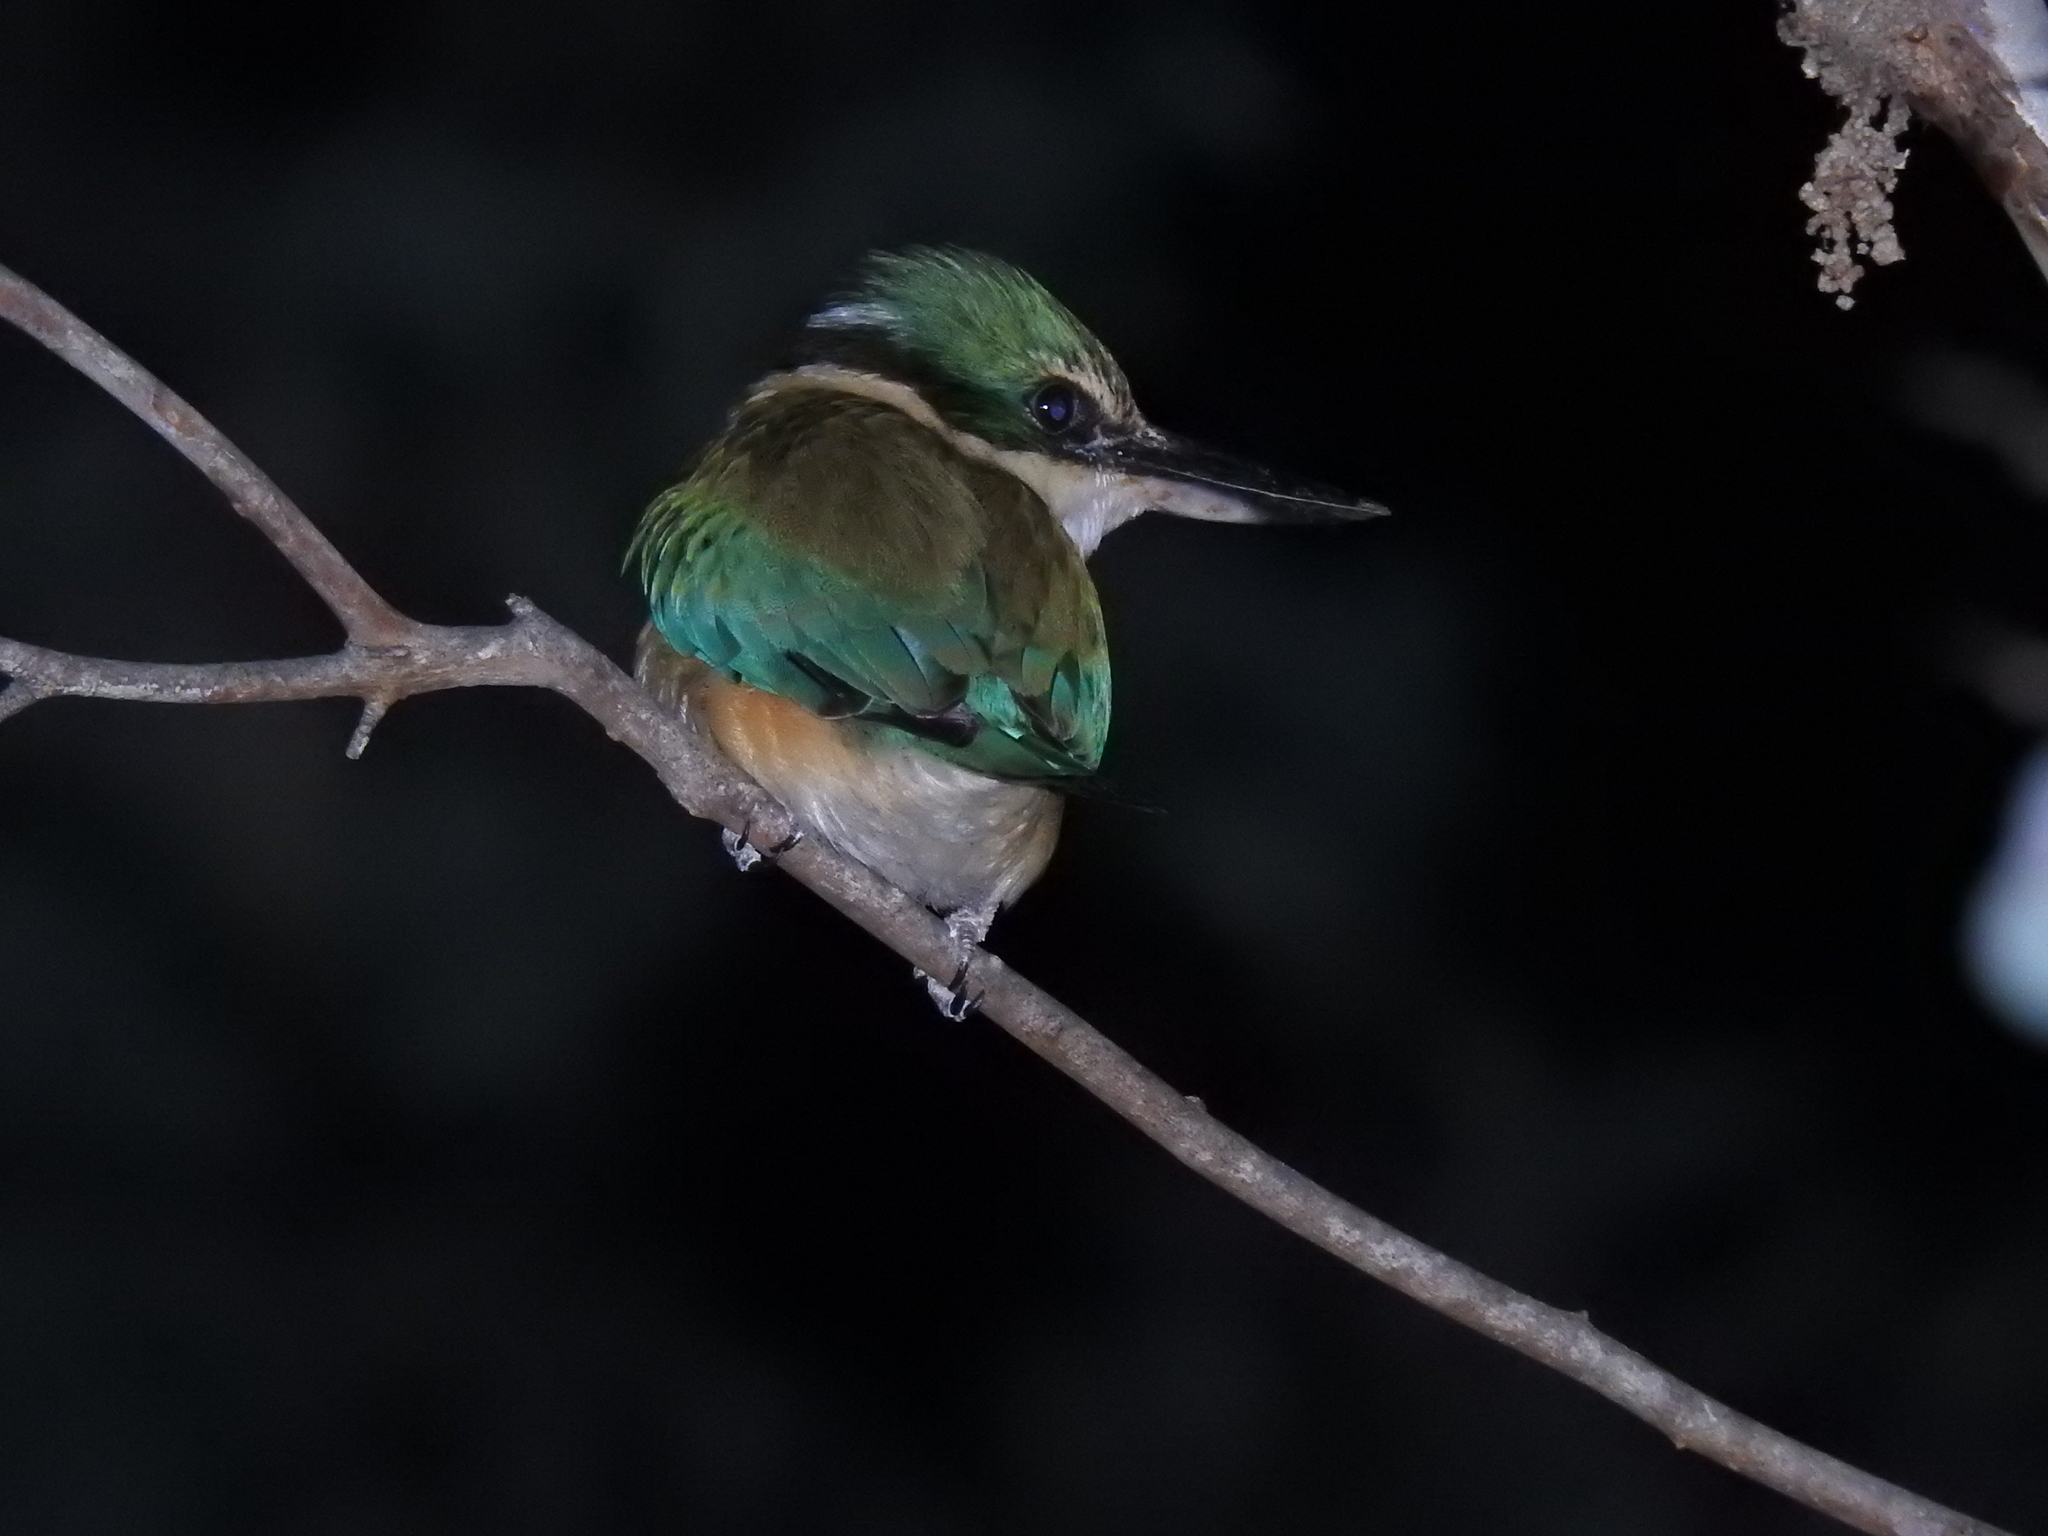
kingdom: Animalia
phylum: Chordata
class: Aves
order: Coraciiformes
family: Alcedinidae
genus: Todiramphus
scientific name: Todiramphus sanctus
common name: Sacred kingfisher
